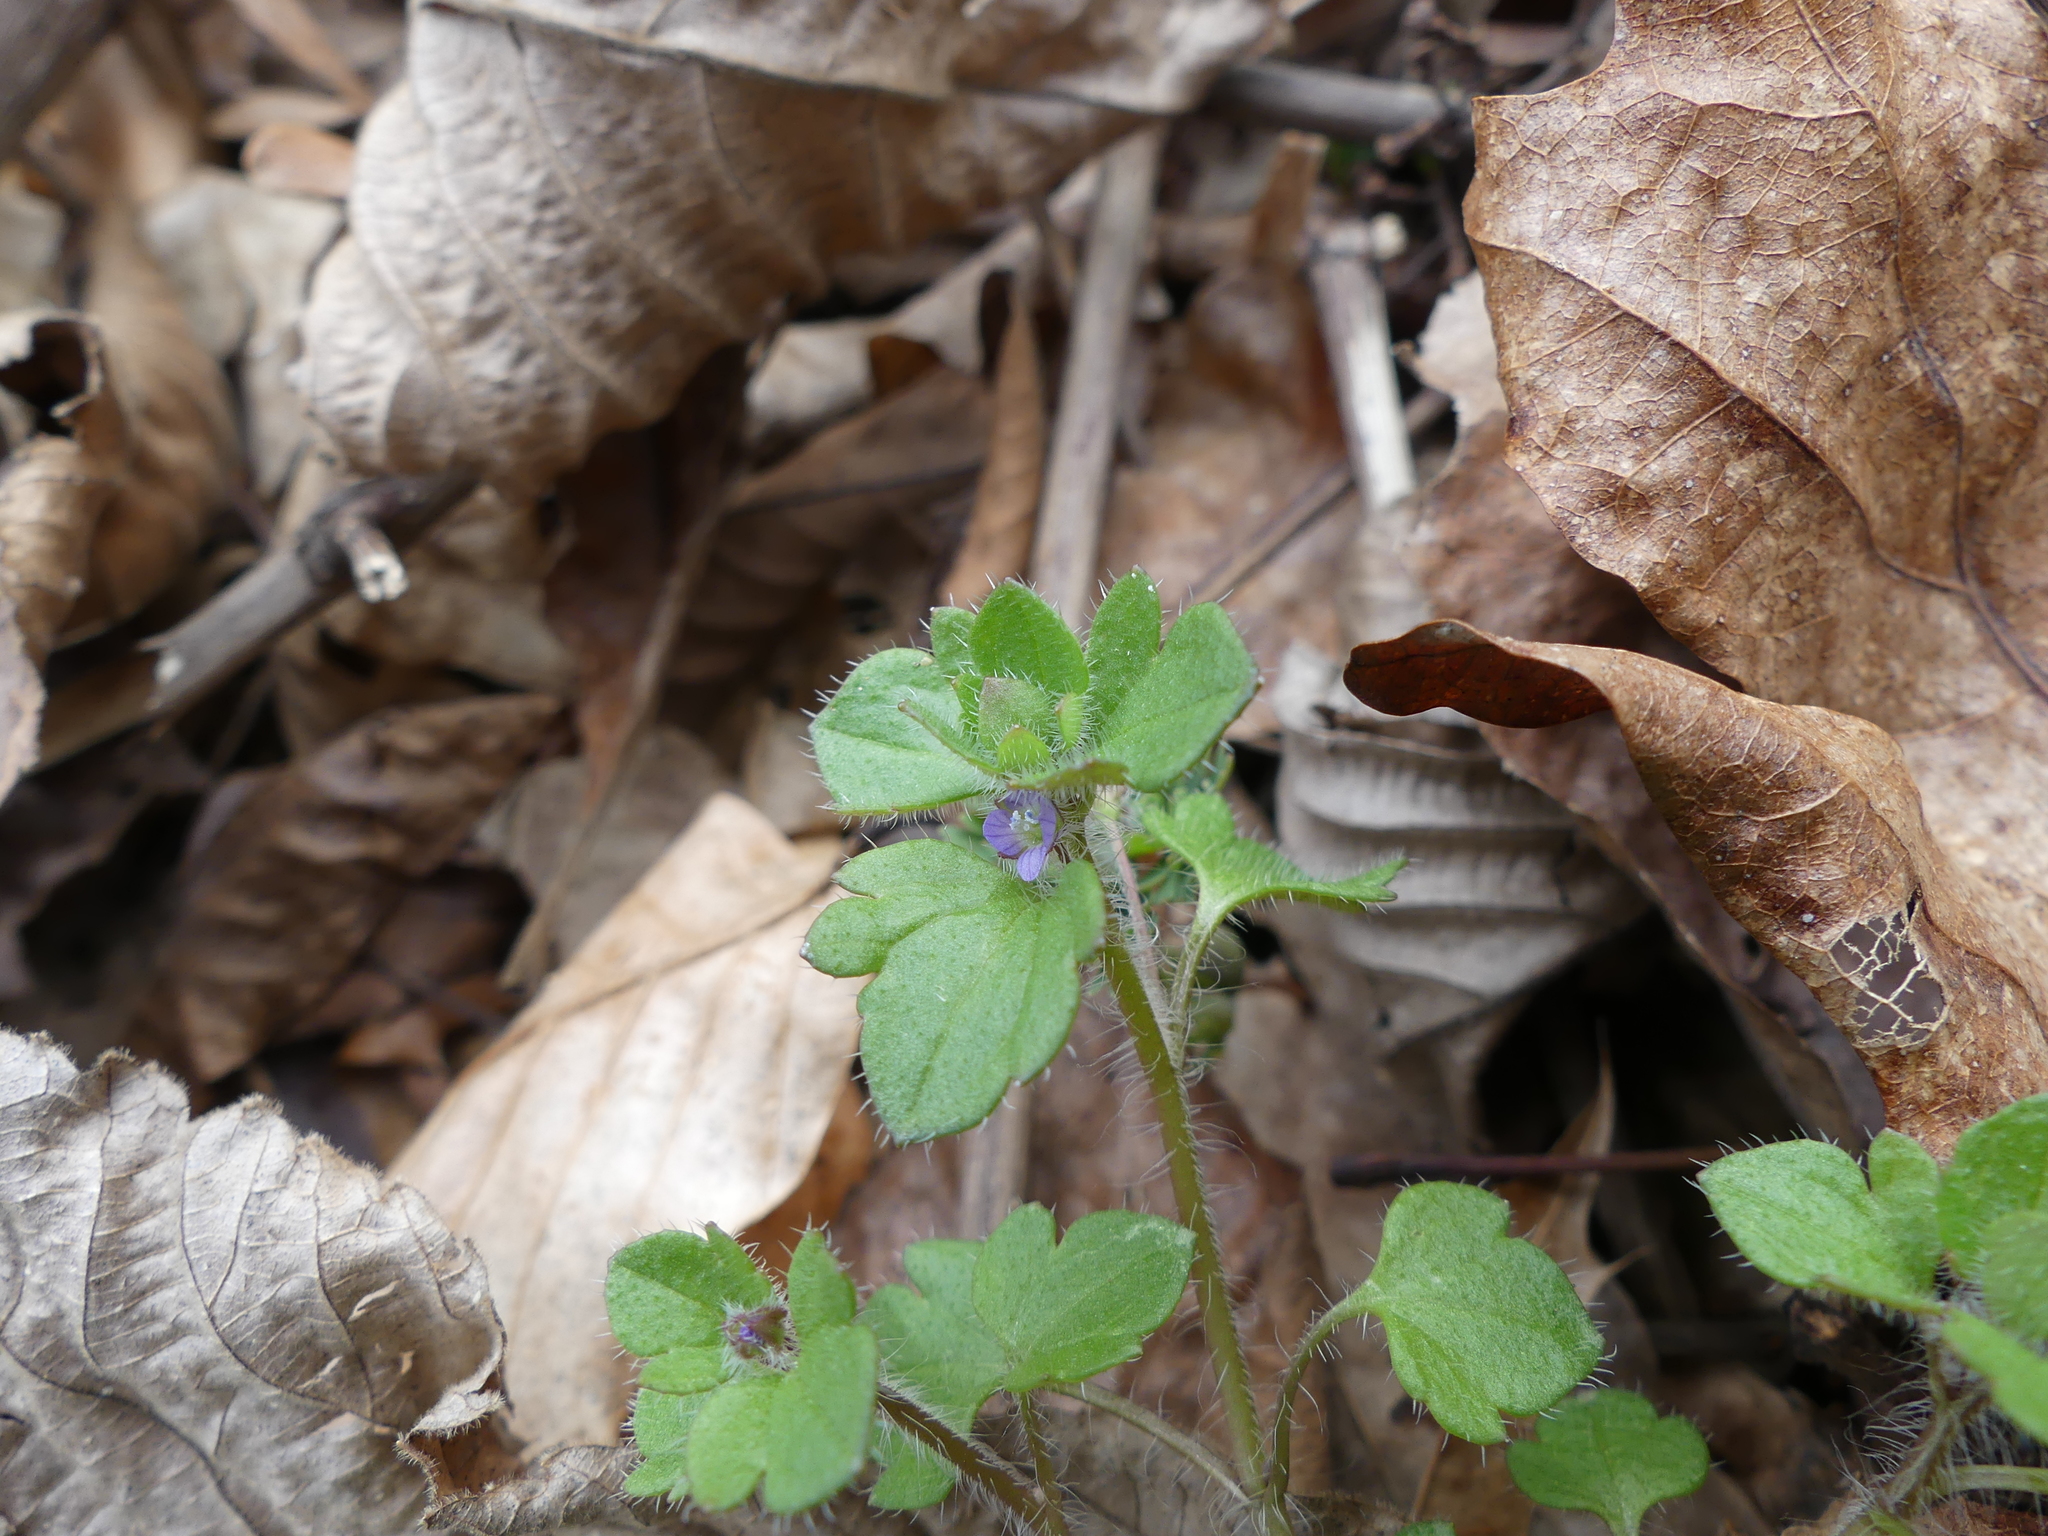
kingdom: Plantae
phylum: Tracheophyta
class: Magnoliopsida
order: Lamiales
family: Plantaginaceae
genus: Veronica
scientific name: Veronica hederifolia
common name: Ivy-leaved speedwell
